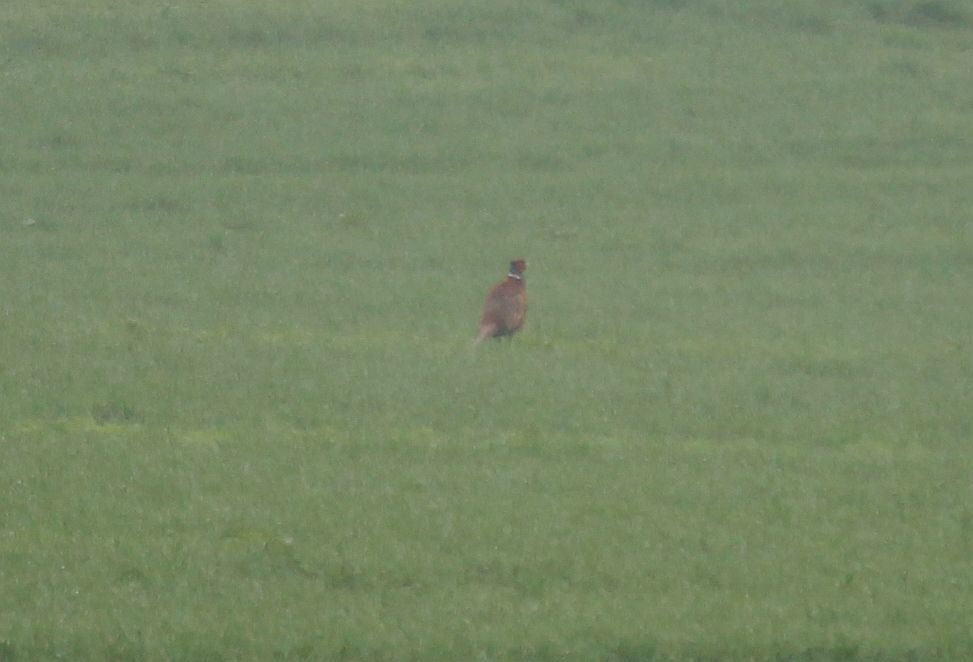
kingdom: Animalia
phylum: Chordata
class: Aves
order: Galliformes
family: Phasianidae
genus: Phasianus
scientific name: Phasianus colchicus
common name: Common pheasant
